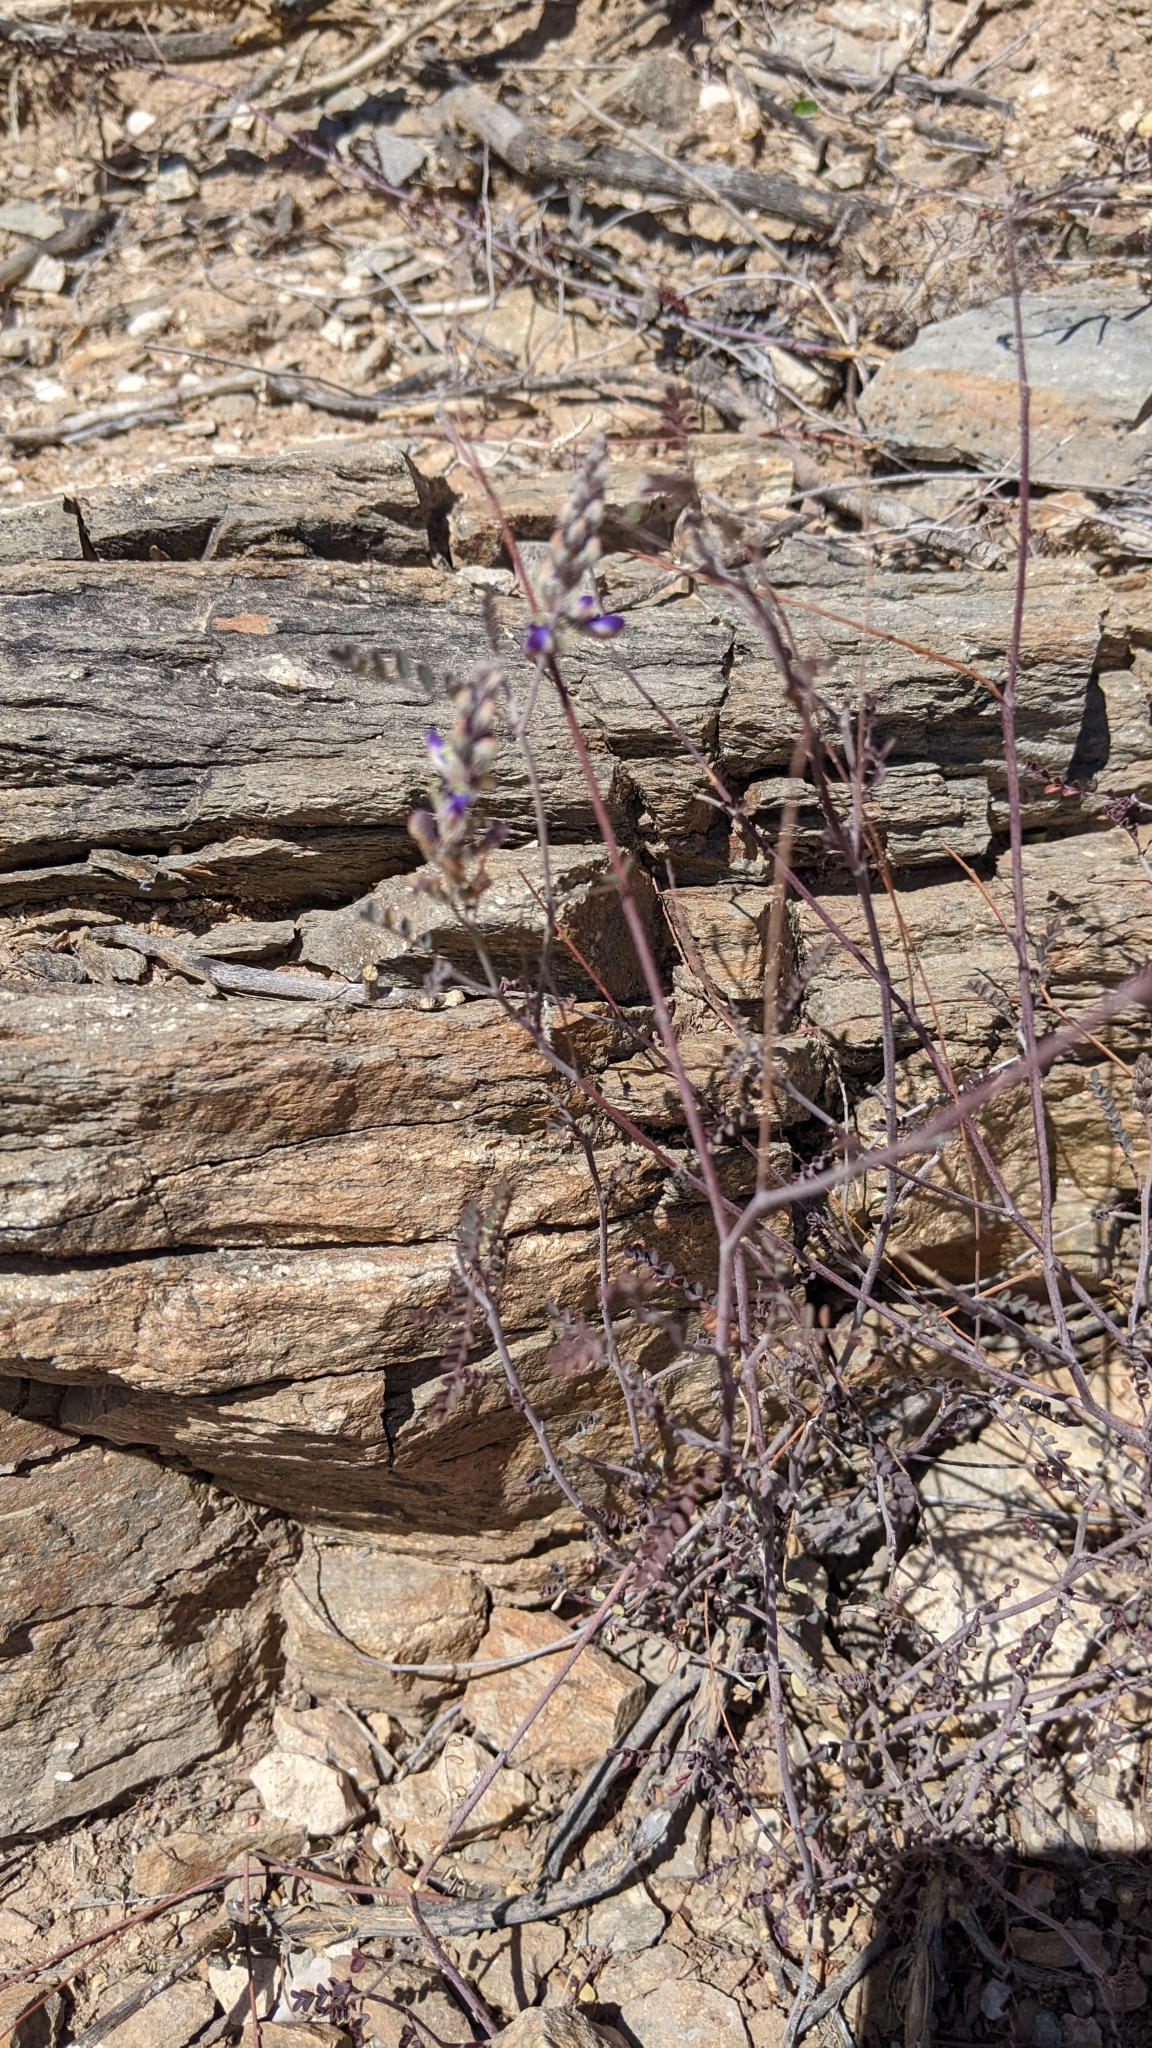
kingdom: Plantae
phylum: Tracheophyta
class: Magnoliopsida
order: Fabales
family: Fabaceae
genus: Marina
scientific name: Marina parryi
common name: Parry's marina
